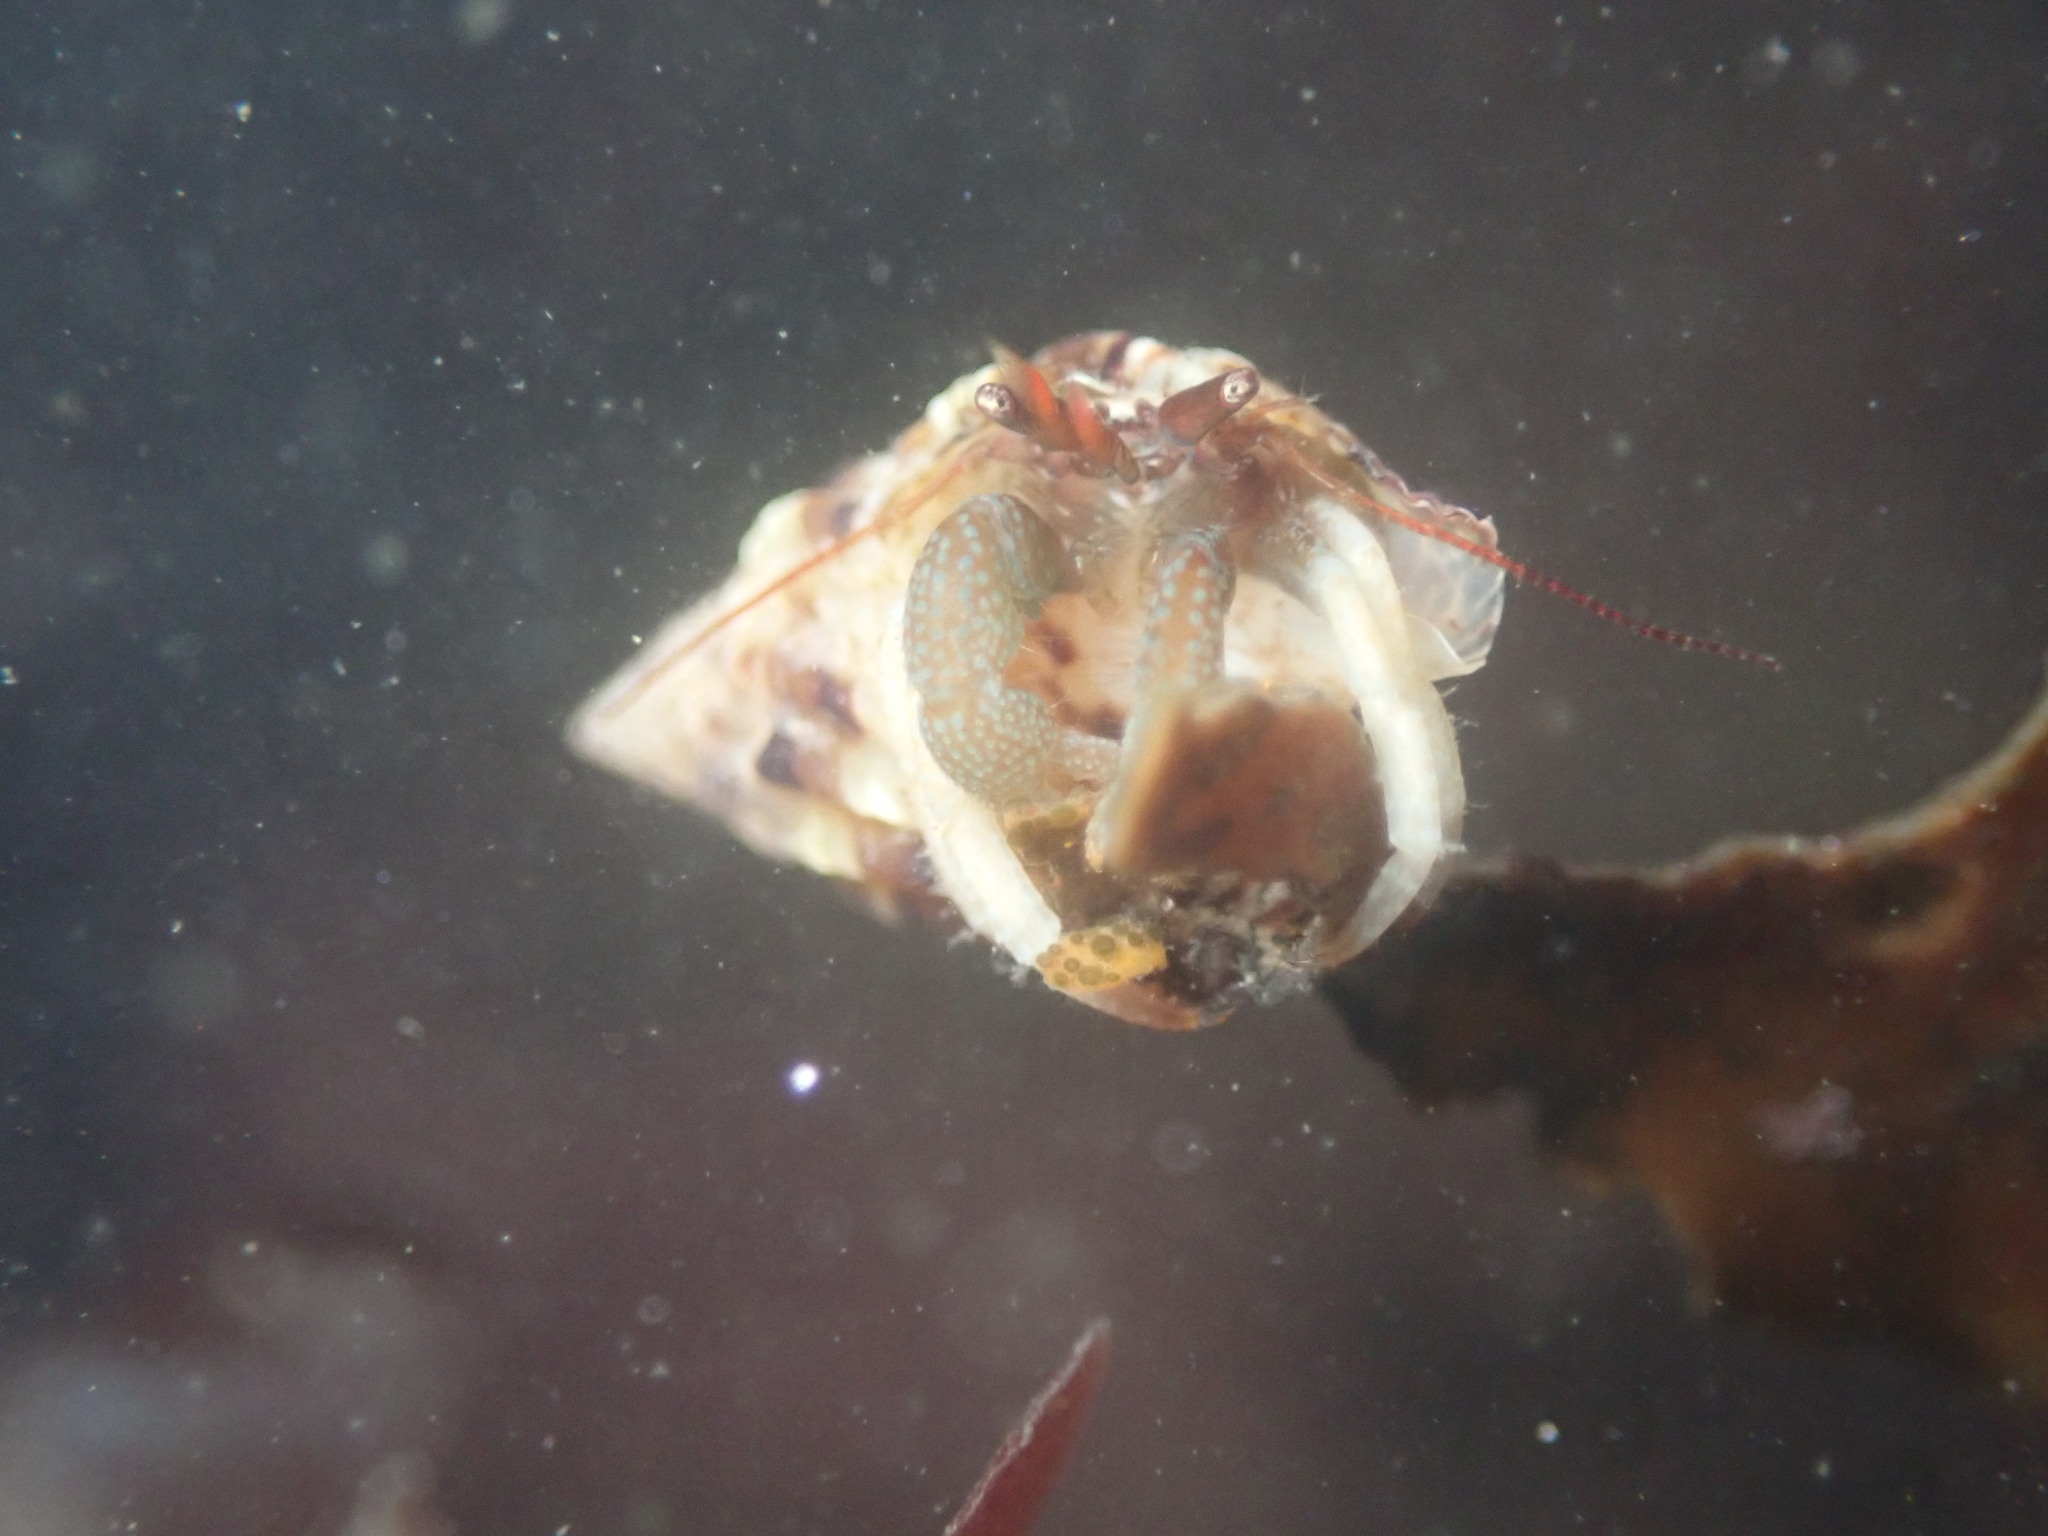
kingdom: Animalia
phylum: Arthropoda
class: Malacostraca
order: Decapoda
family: Paguridae
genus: Pagurus
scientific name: Pagurus granosimanus
